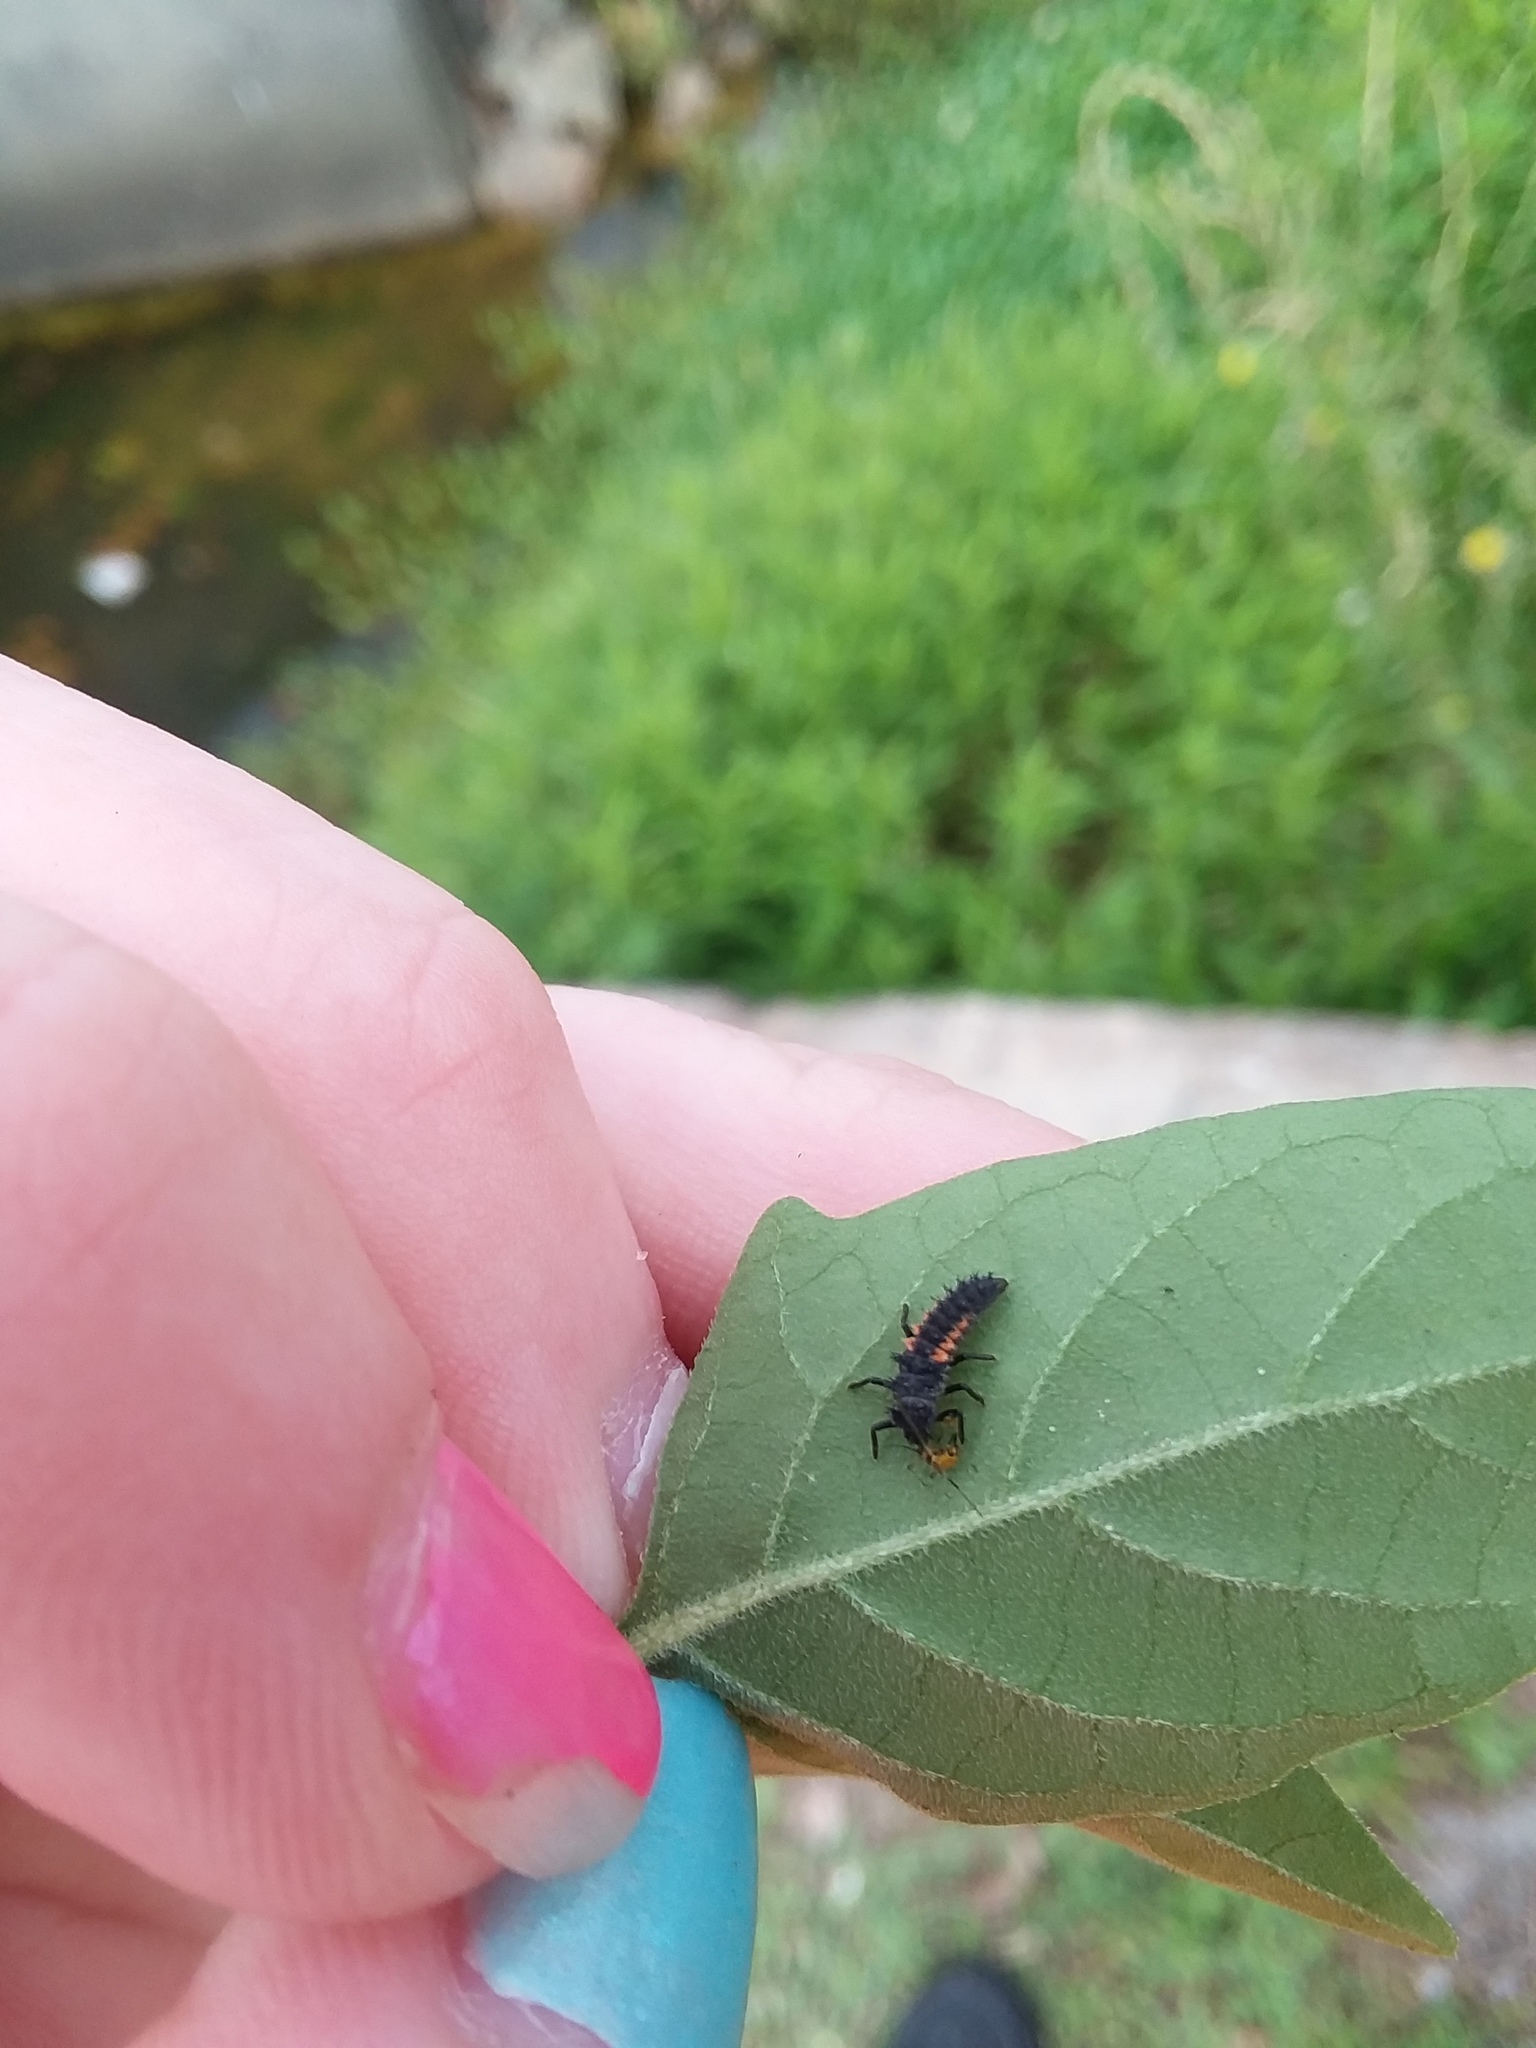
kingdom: Animalia
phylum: Arthropoda
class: Insecta
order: Coleoptera
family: Coccinellidae
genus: Harmonia
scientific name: Harmonia axyridis
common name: Harlequin ladybird
